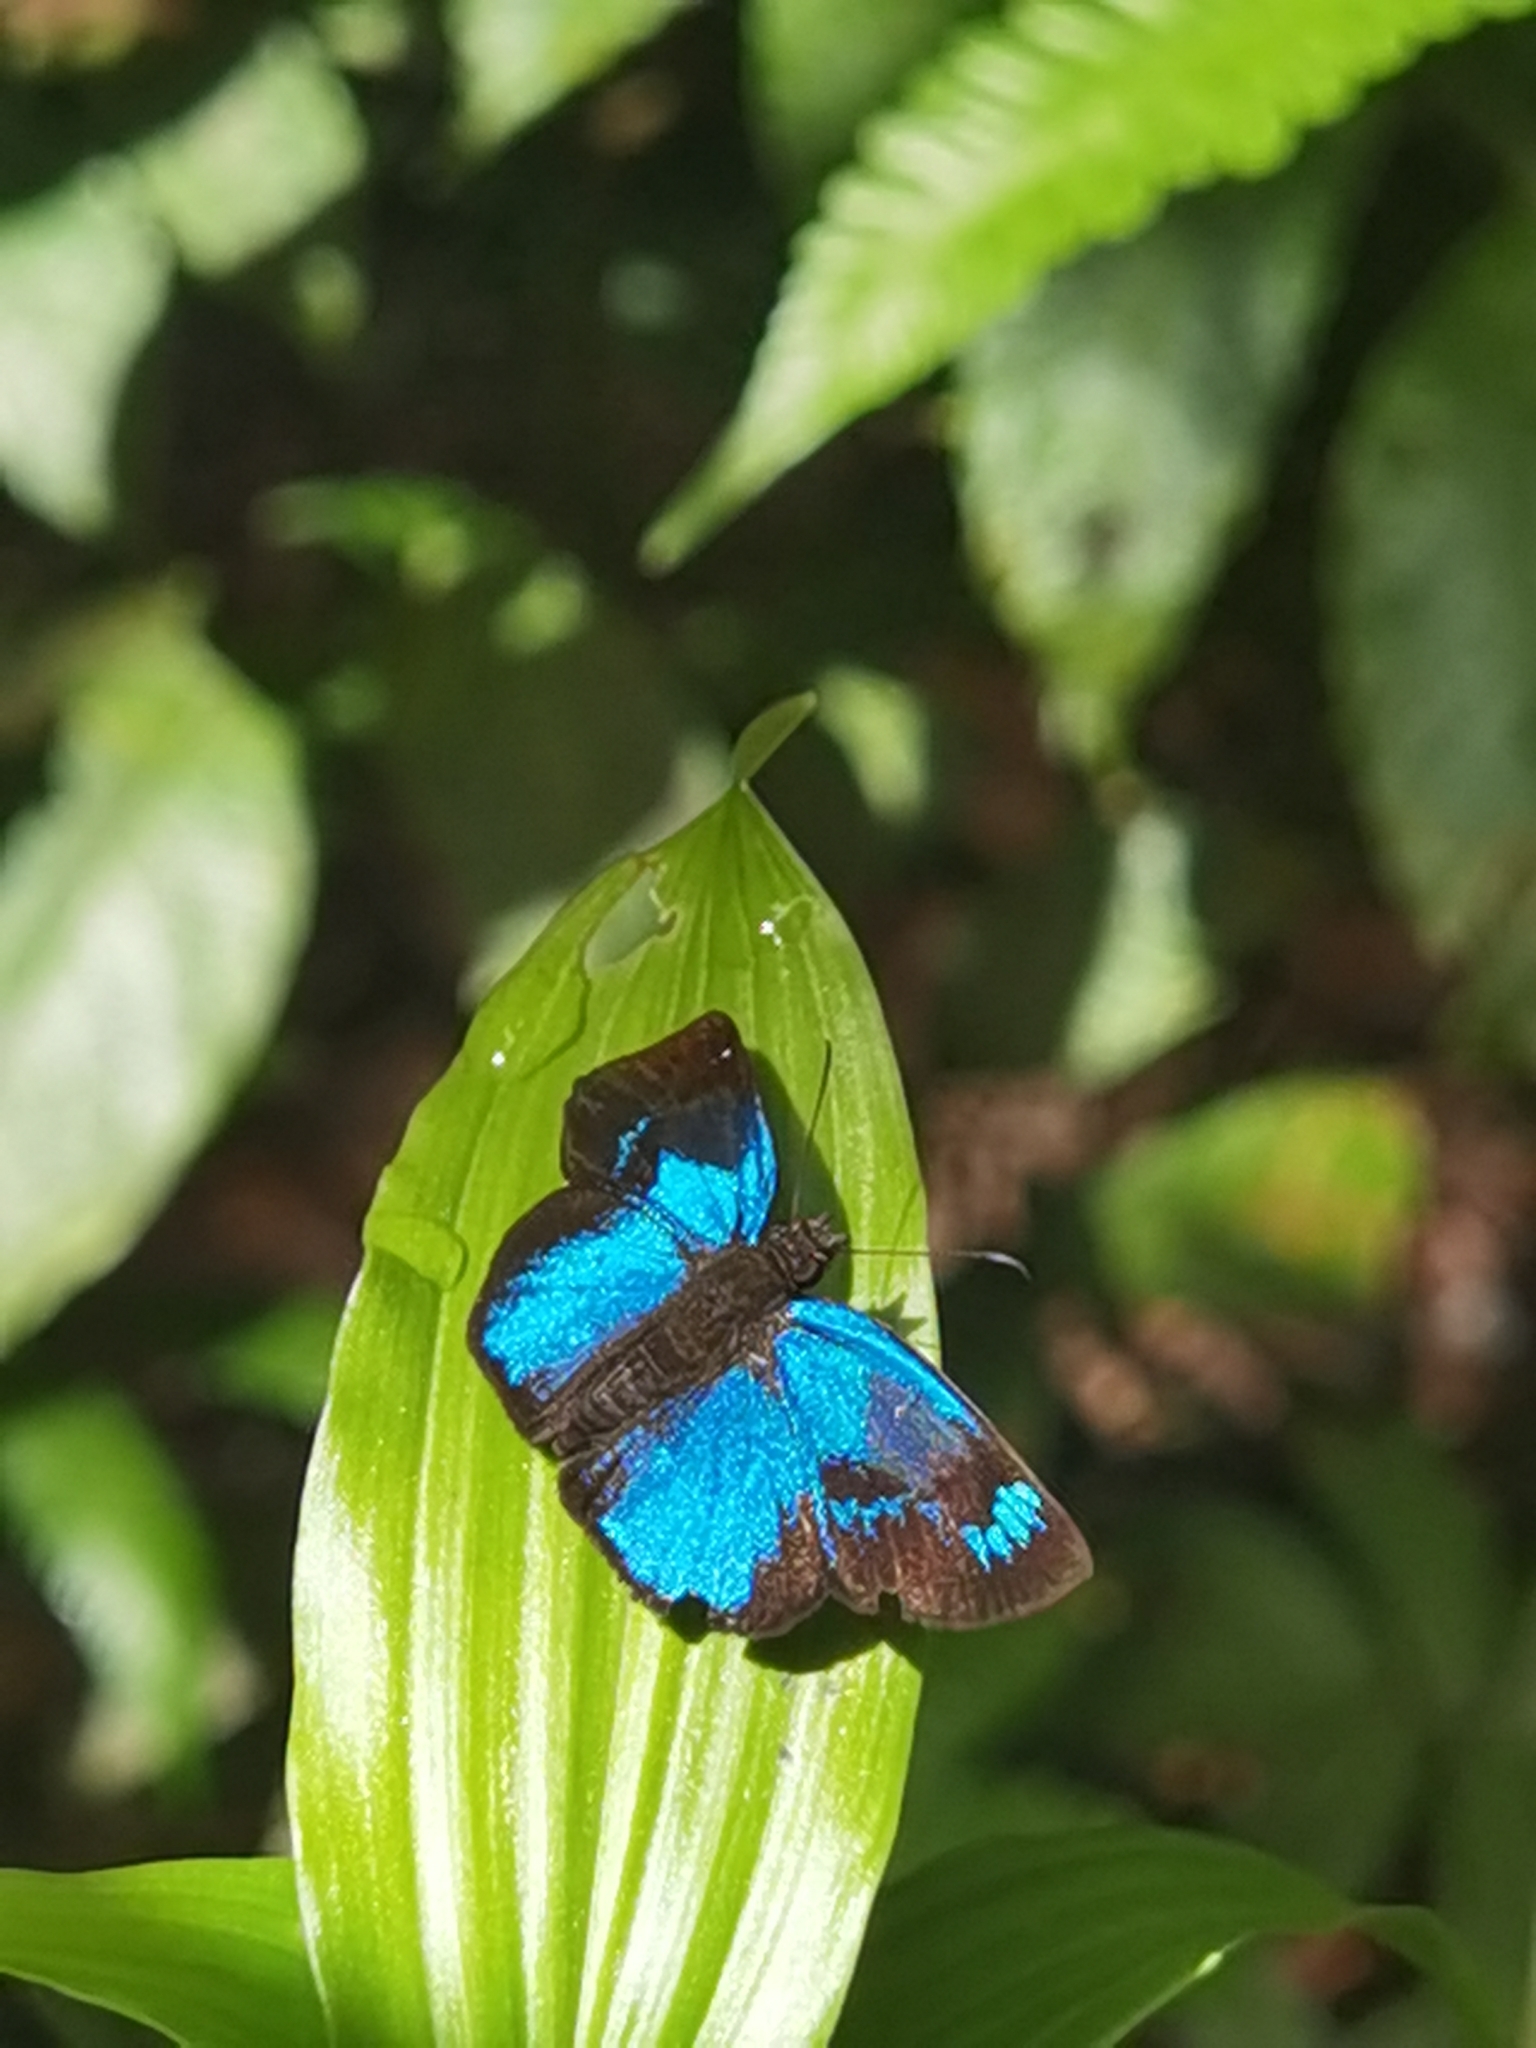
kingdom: Animalia
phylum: Arthropoda
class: Insecta
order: Lepidoptera
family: Hesperiidae
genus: Paches
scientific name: Paches loxus
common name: Glorious blue-skipper
